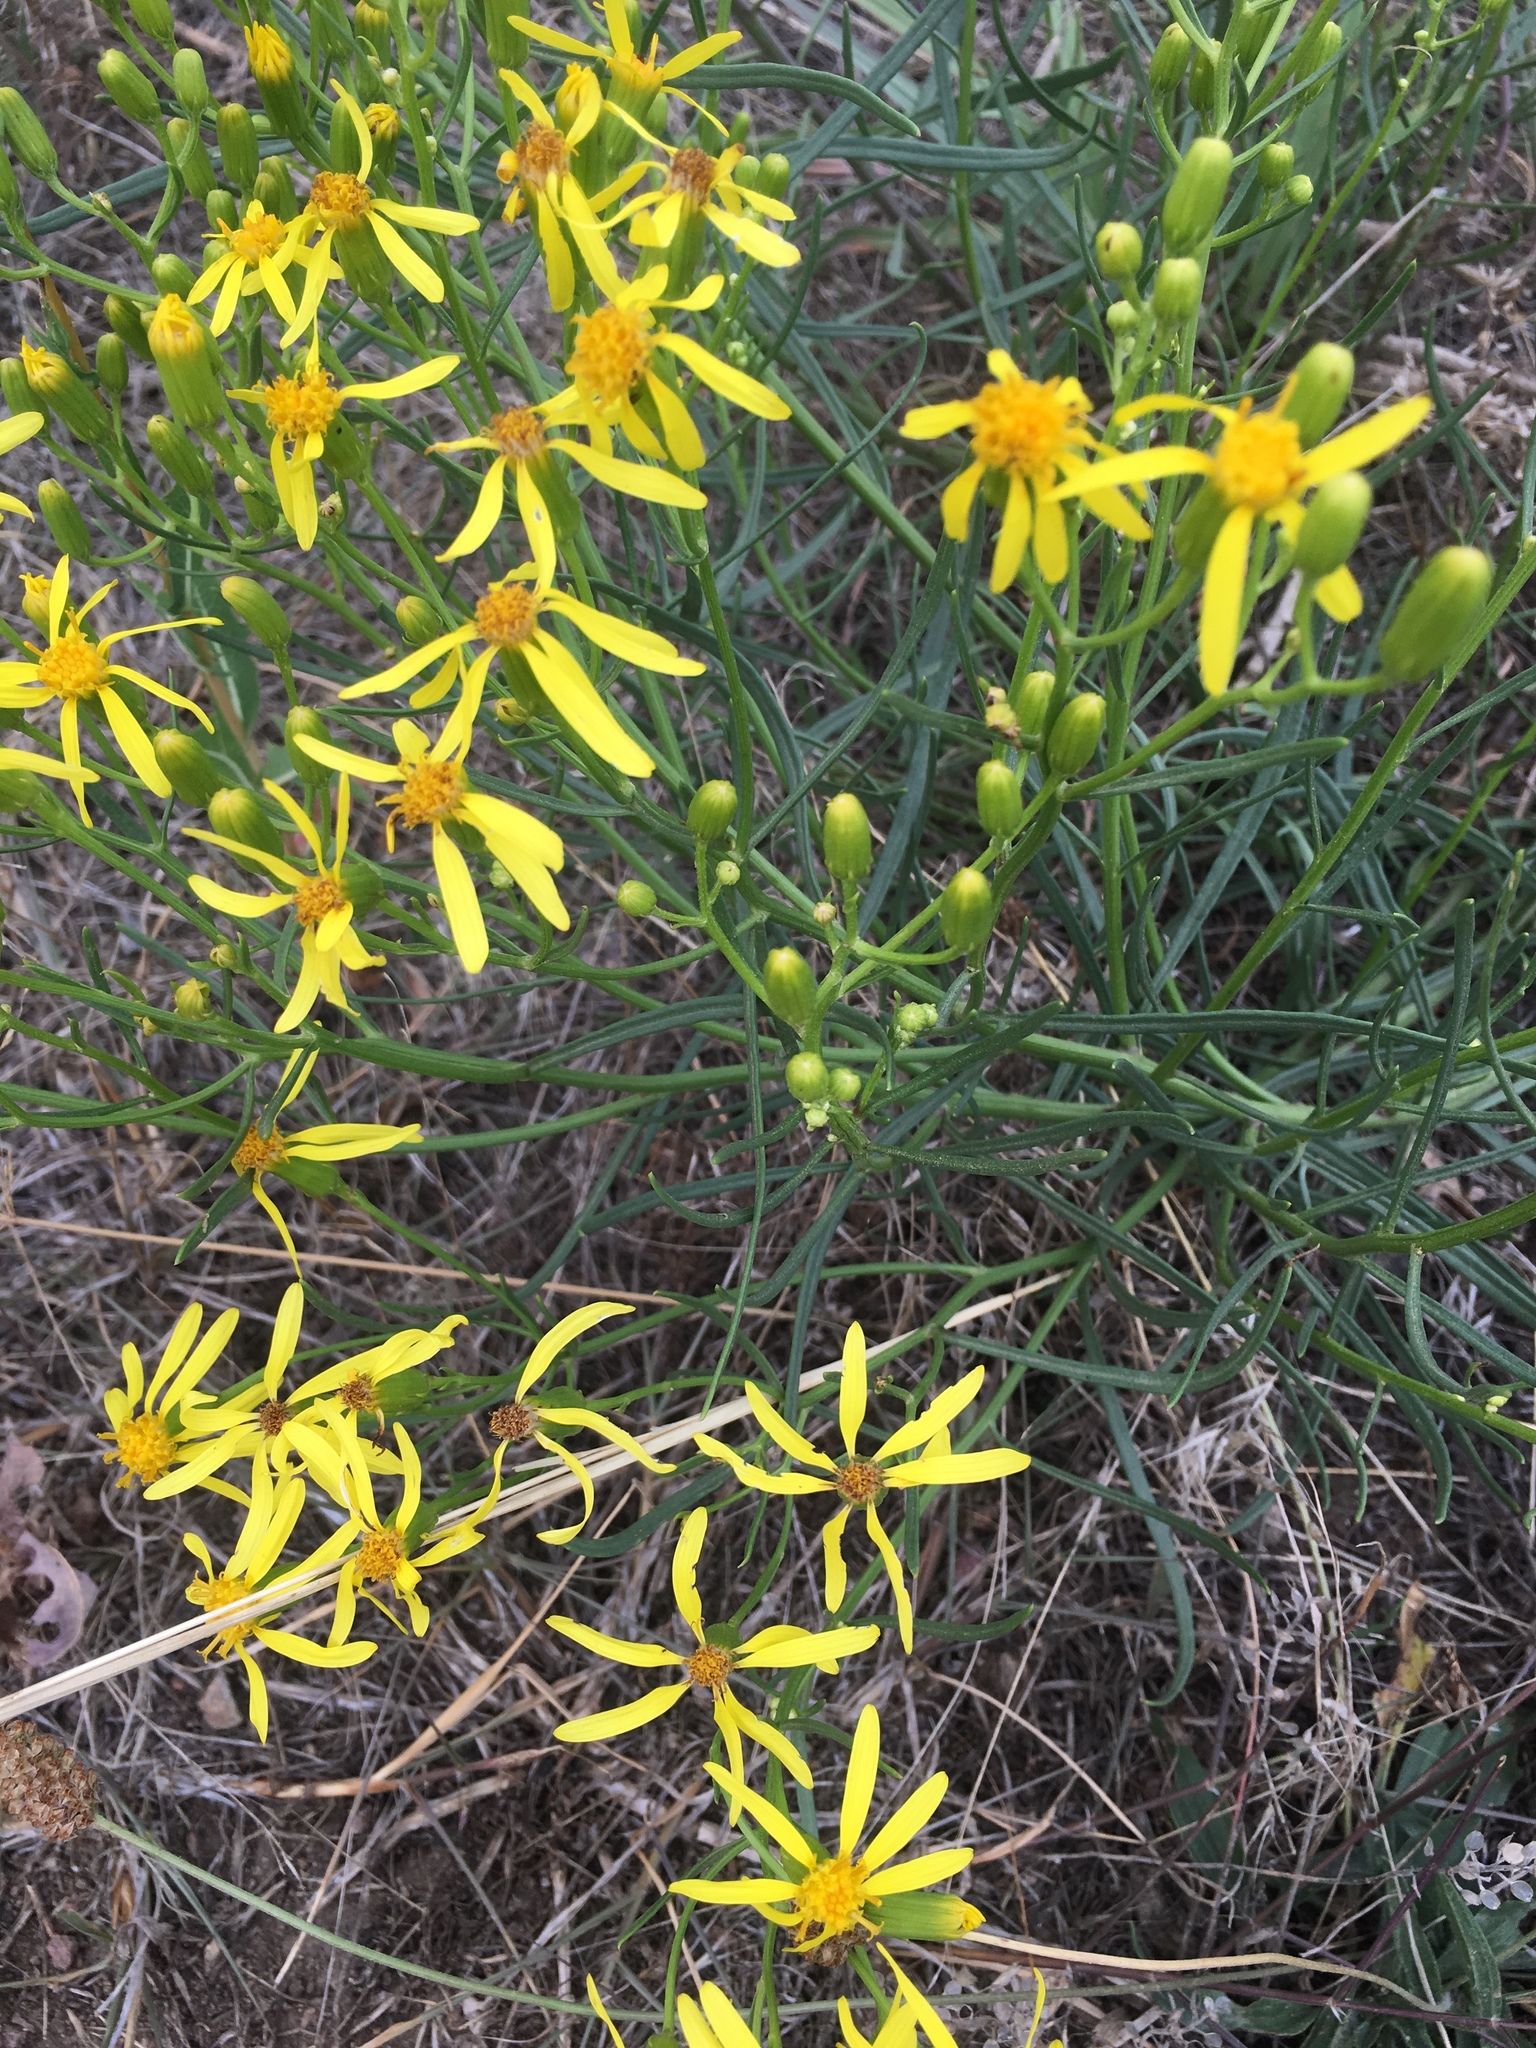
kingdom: Plantae
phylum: Tracheophyta
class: Magnoliopsida
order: Asterales
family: Asteraceae
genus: Senecio
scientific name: Senecio spartioides
